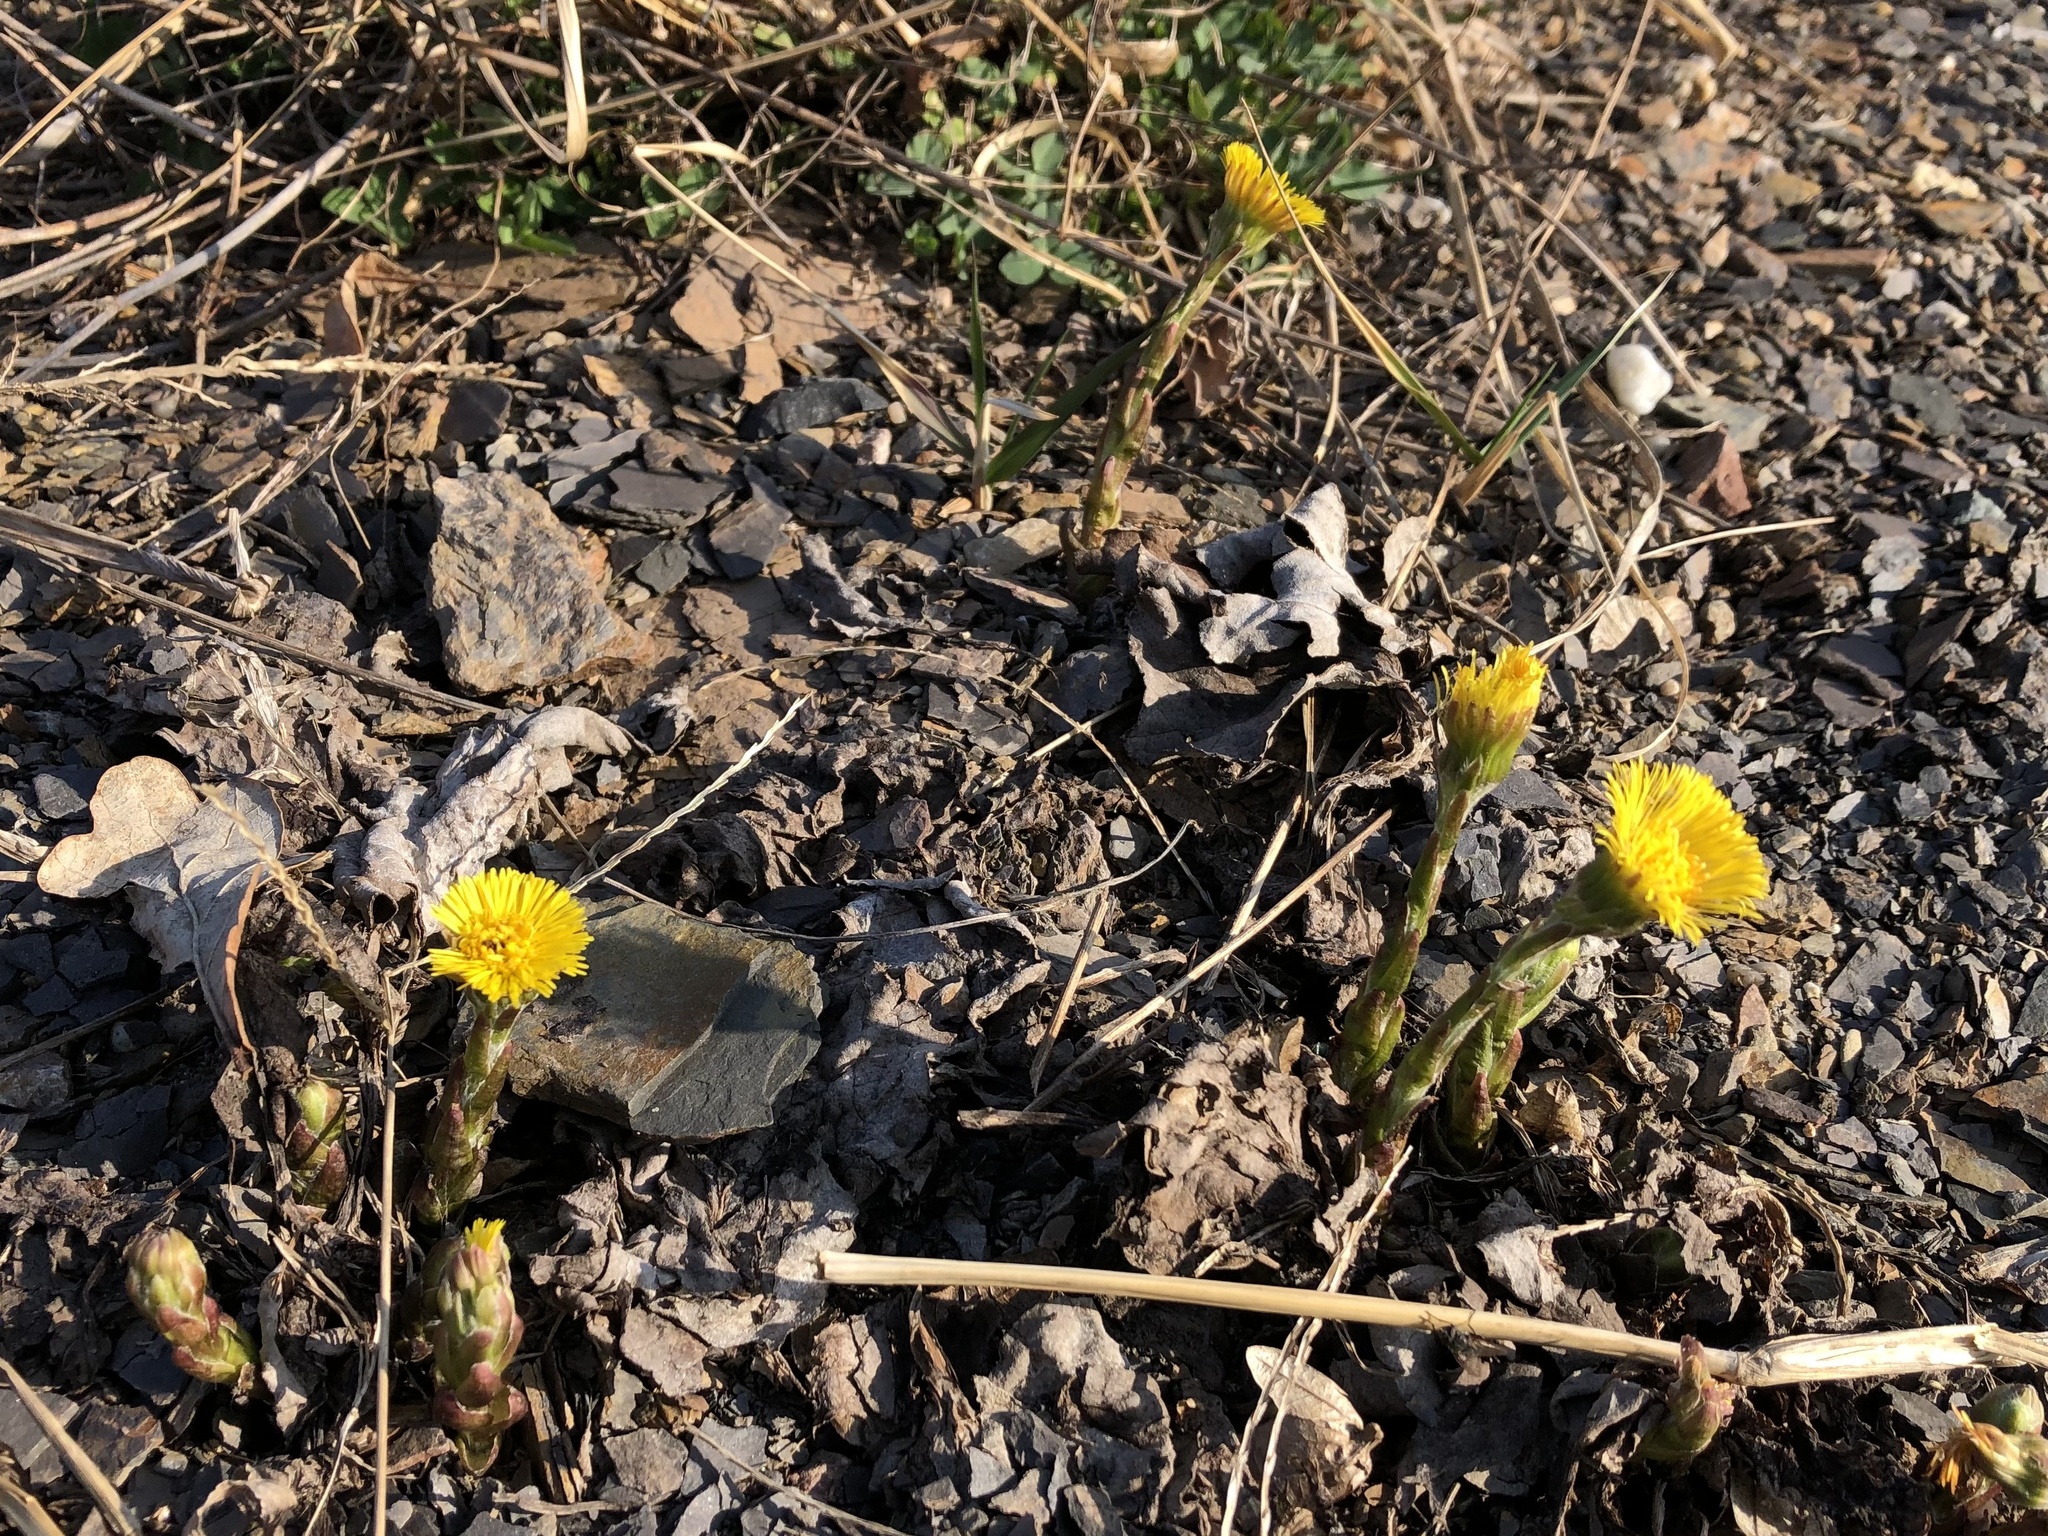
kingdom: Plantae
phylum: Tracheophyta
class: Magnoliopsida
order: Asterales
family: Asteraceae
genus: Tussilago
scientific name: Tussilago farfara
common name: Coltsfoot
